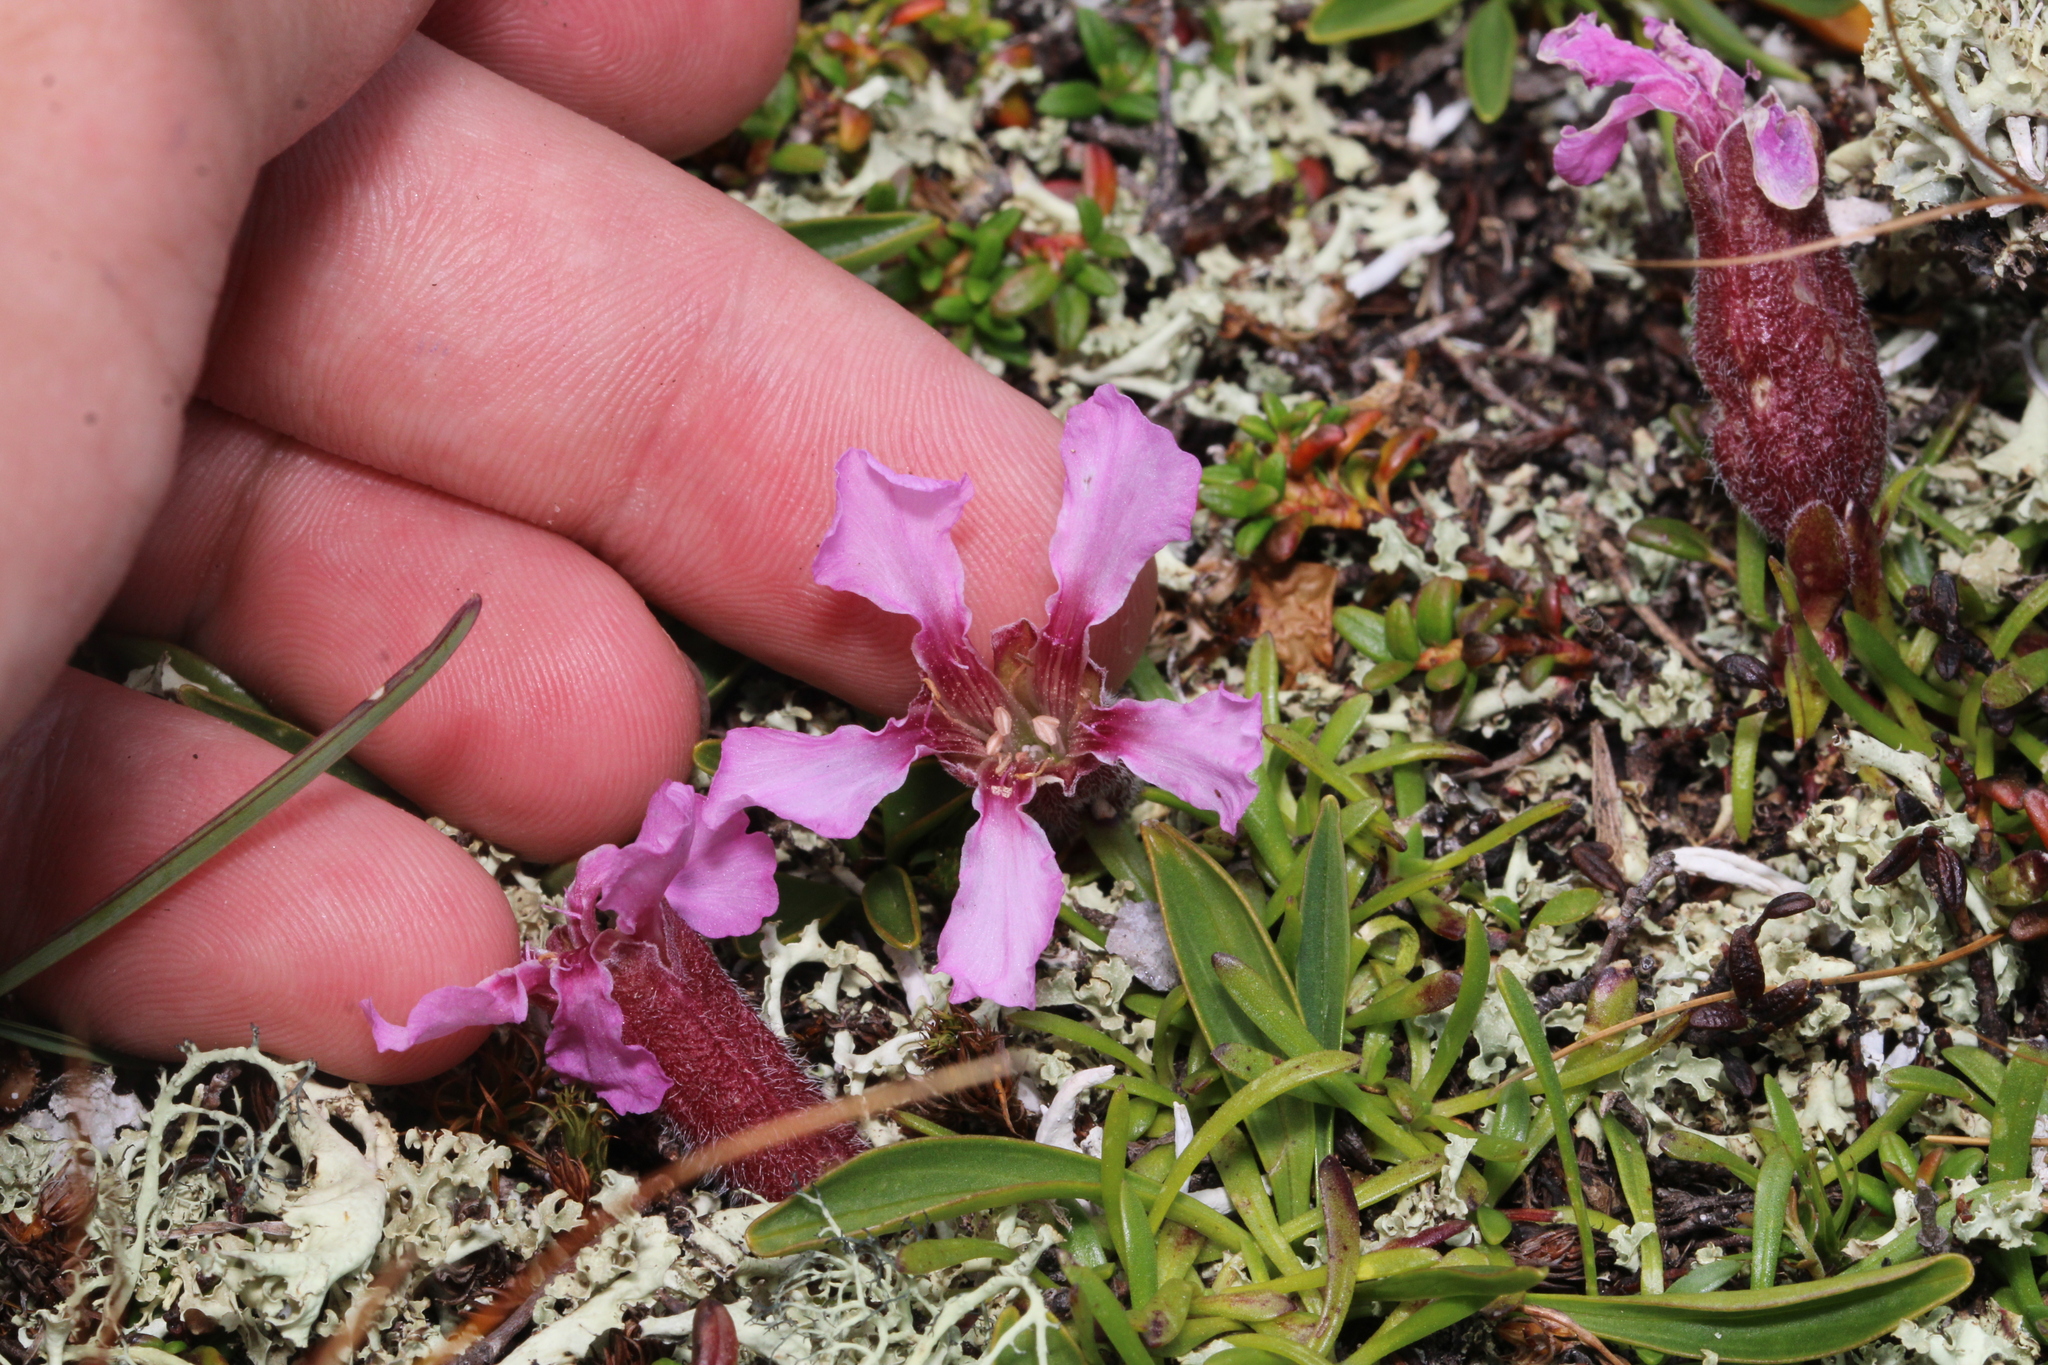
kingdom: Plantae
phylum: Tracheophyta
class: Magnoliopsida
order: Caryophyllales
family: Caryophyllaceae
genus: Saponaria
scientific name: Saponaria pumila
